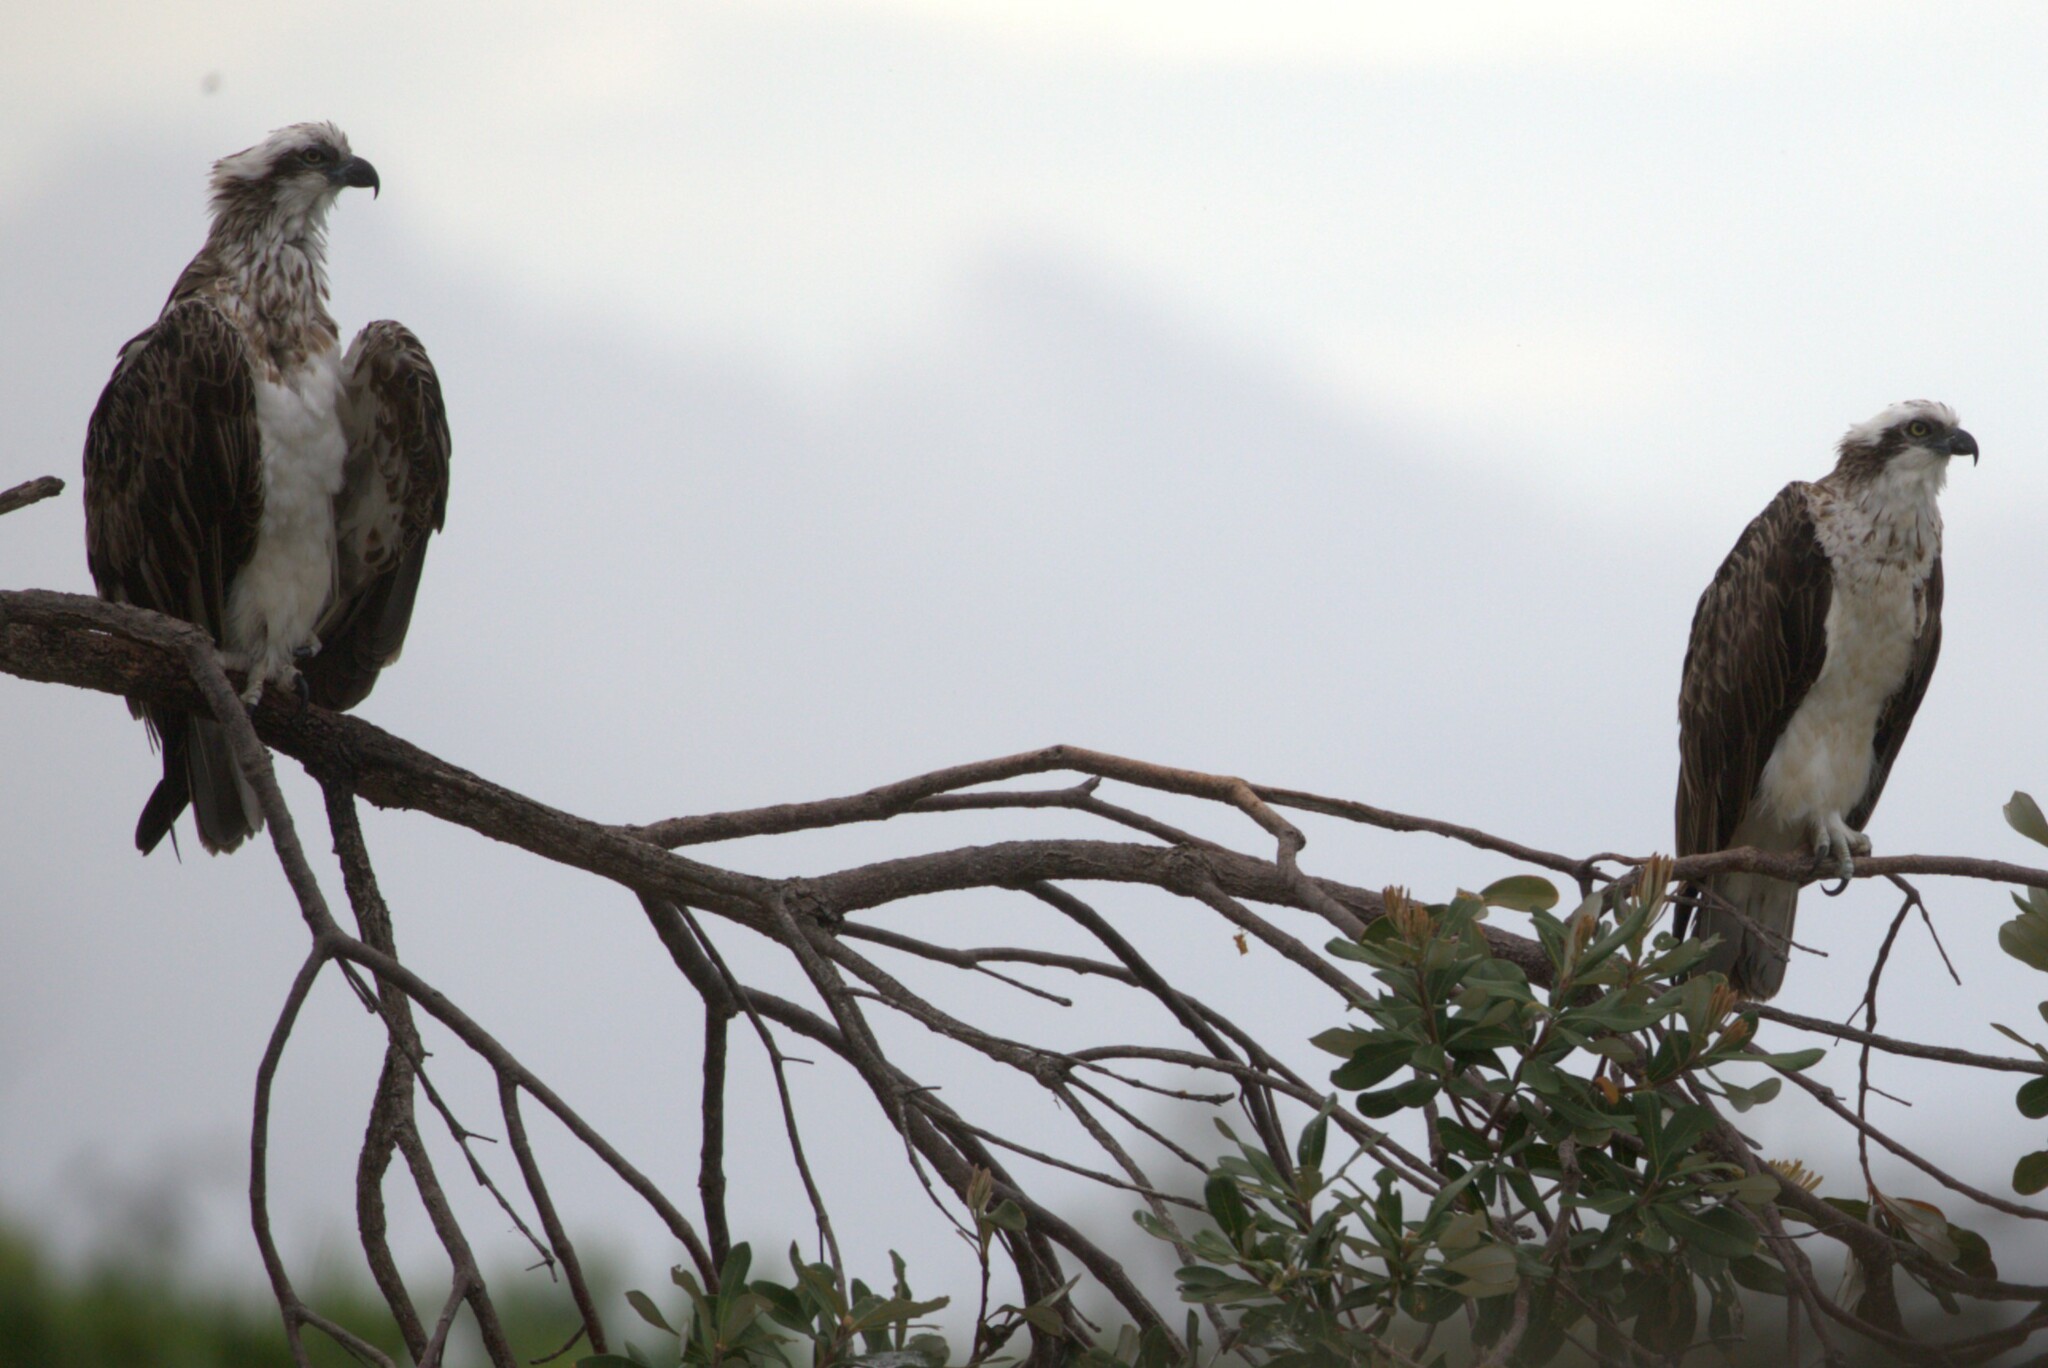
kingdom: Animalia
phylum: Chordata
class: Aves
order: Accipitriformes
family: Pandionidae
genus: Pandion
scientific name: Pandion haliaetus
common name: Osprey
